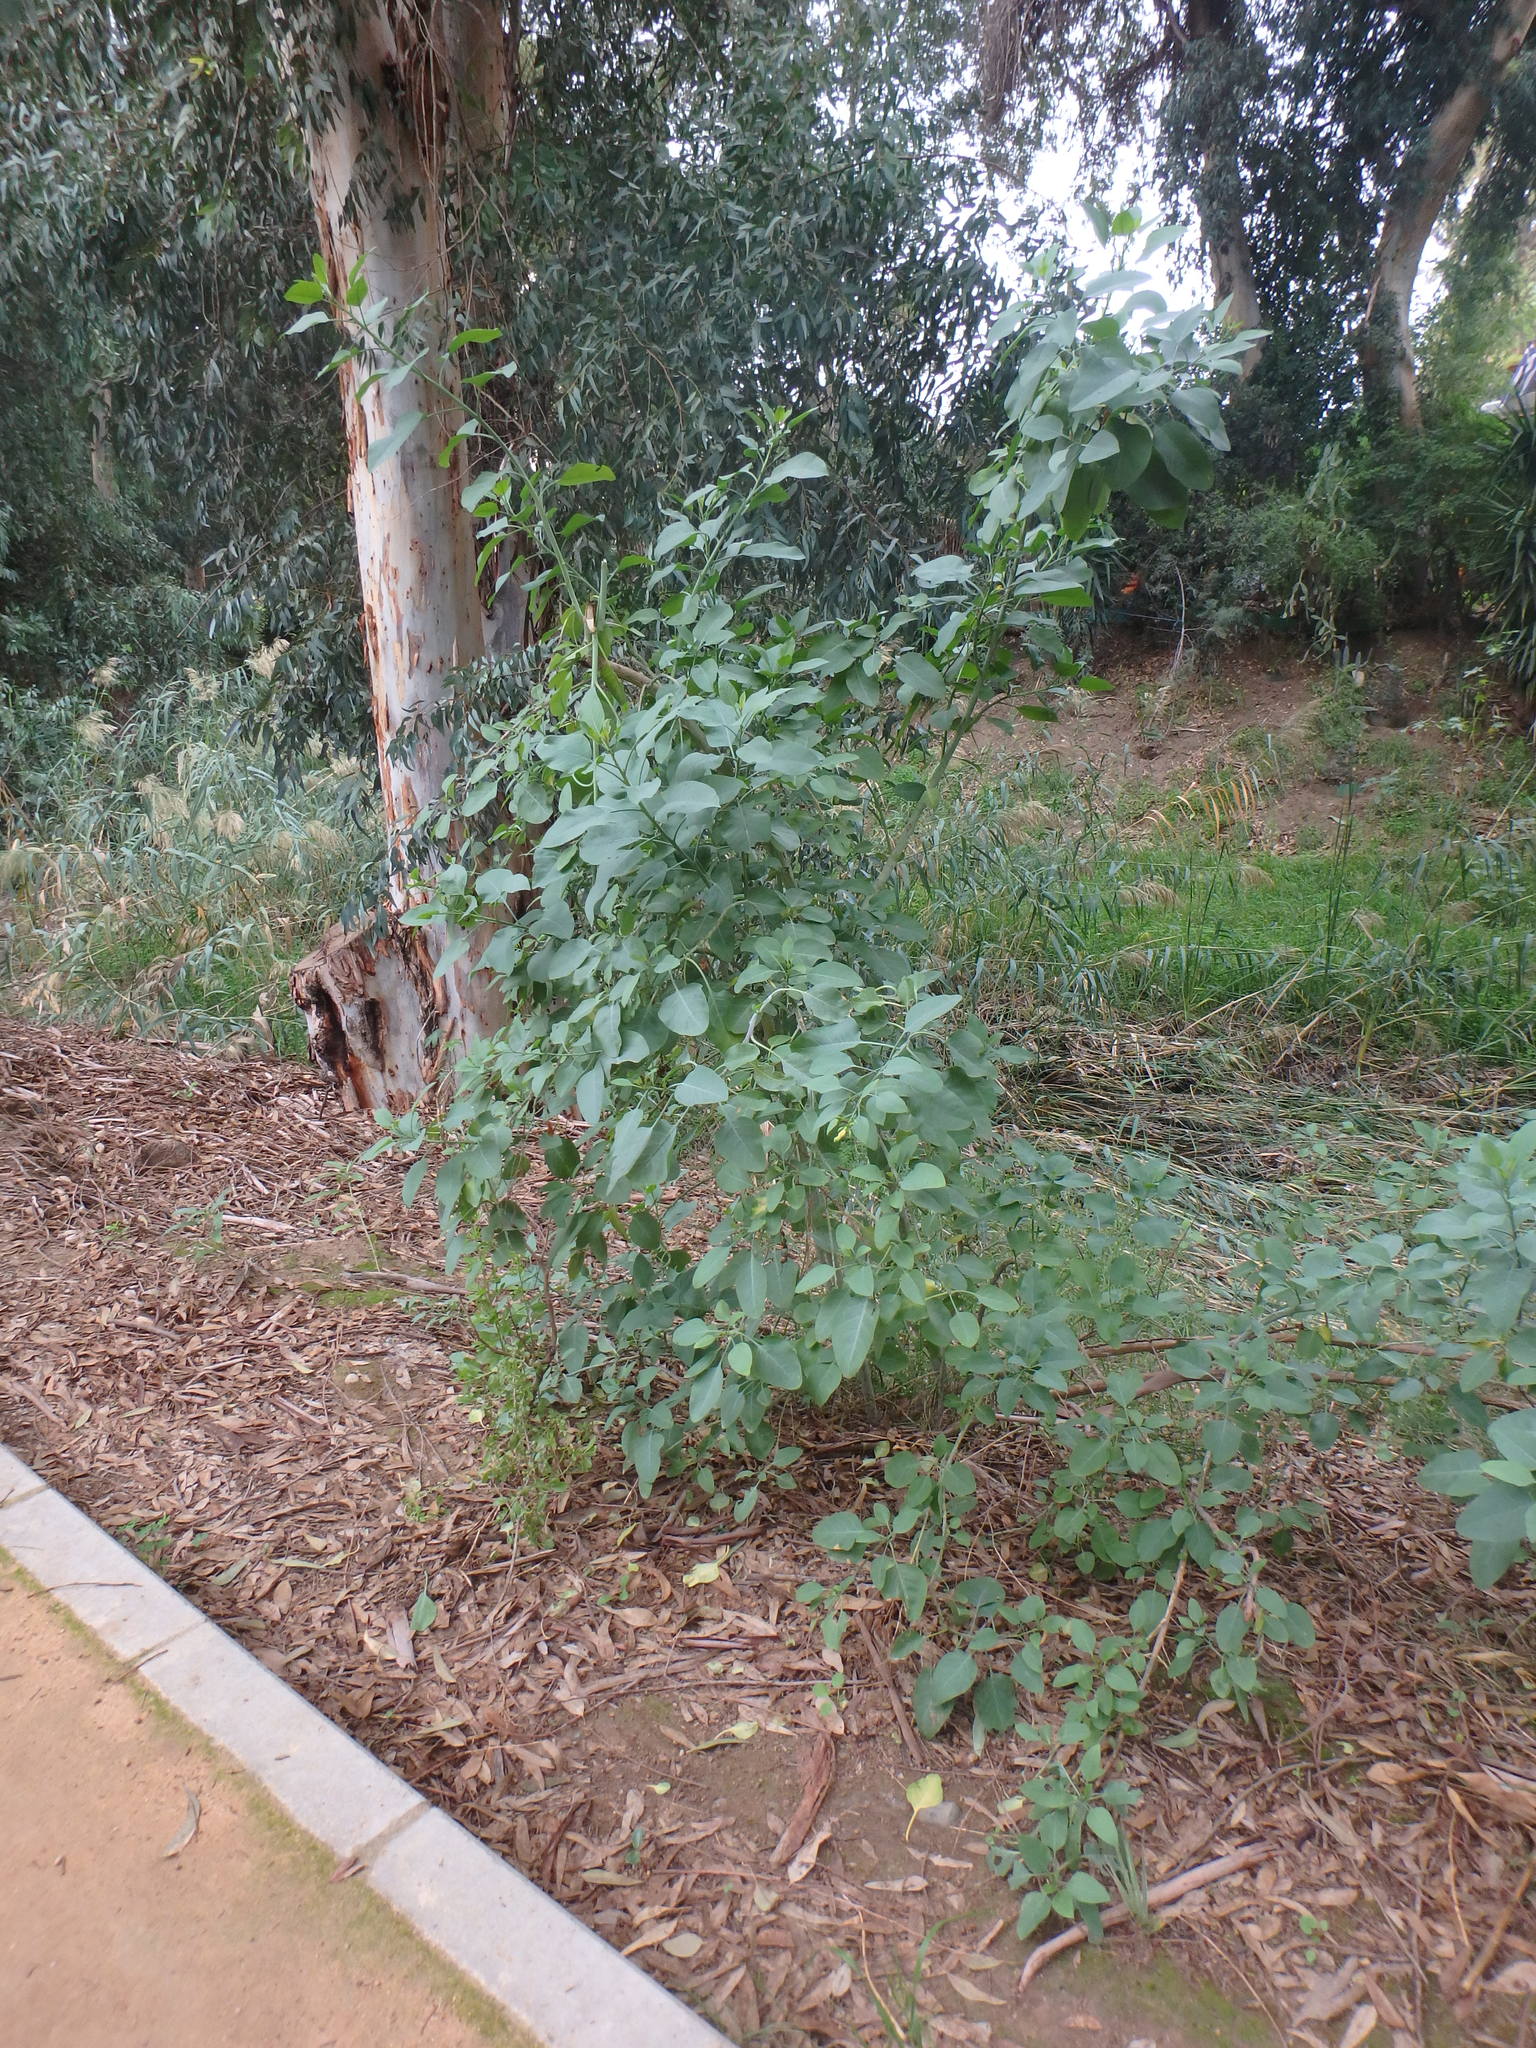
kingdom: Plantae
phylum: Tracheophyta
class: Magnoliopsida
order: Solanales
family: Solanaceae
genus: Nicotiana
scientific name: Nicotiana glauca
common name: Tree tobacco
